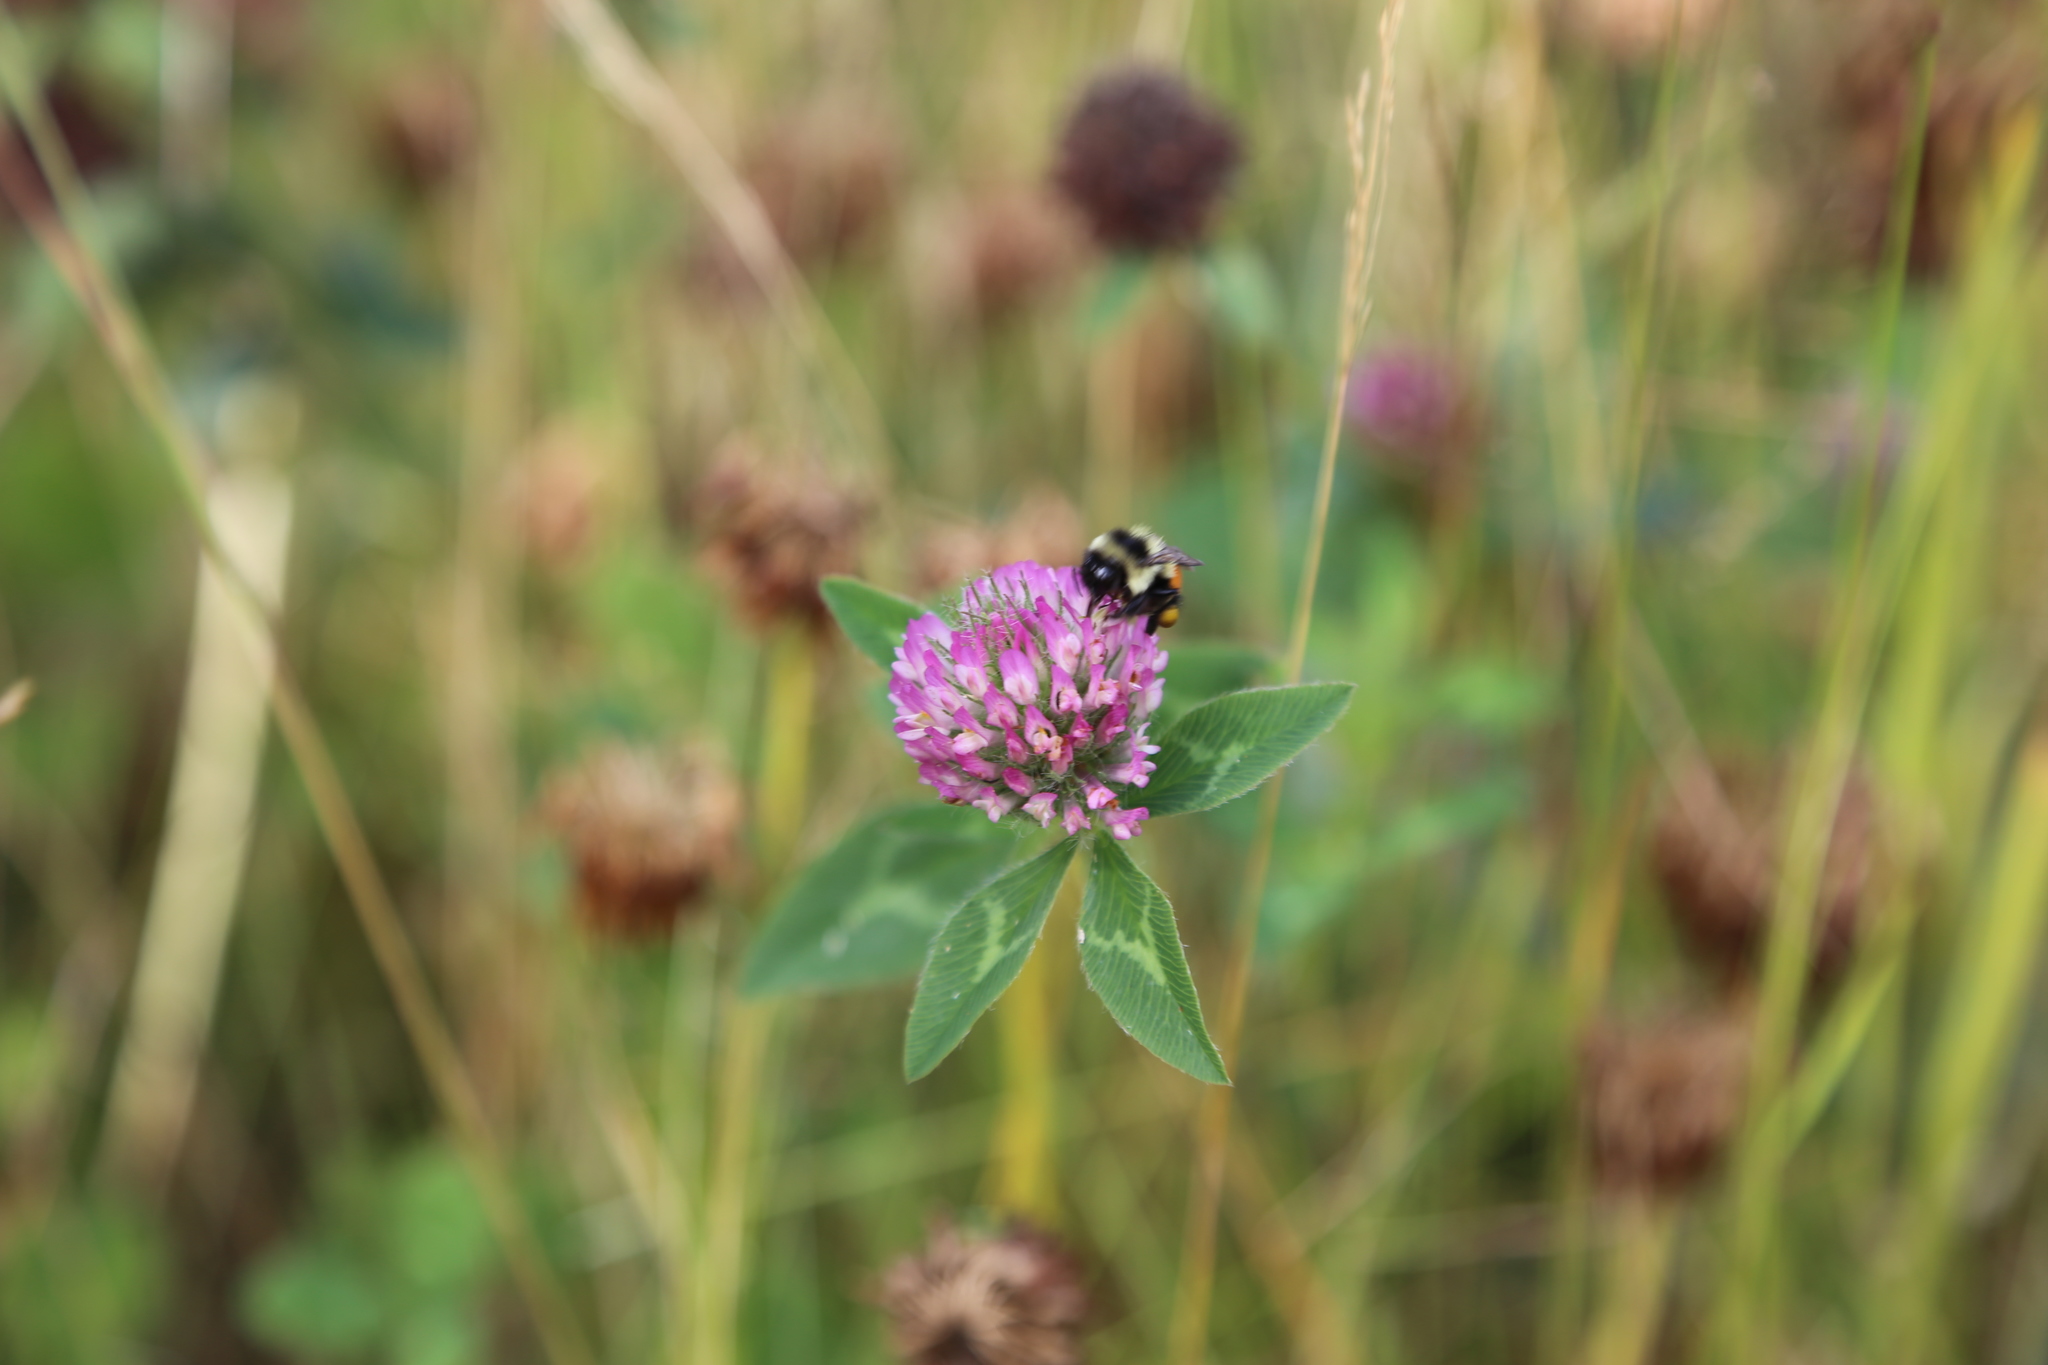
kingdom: Animalia
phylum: Arthropoda
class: Insecta
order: Hymenoptera
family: Apidae
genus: Bombus
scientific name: Bombus ternarius
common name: Tri-colored bumble bee
